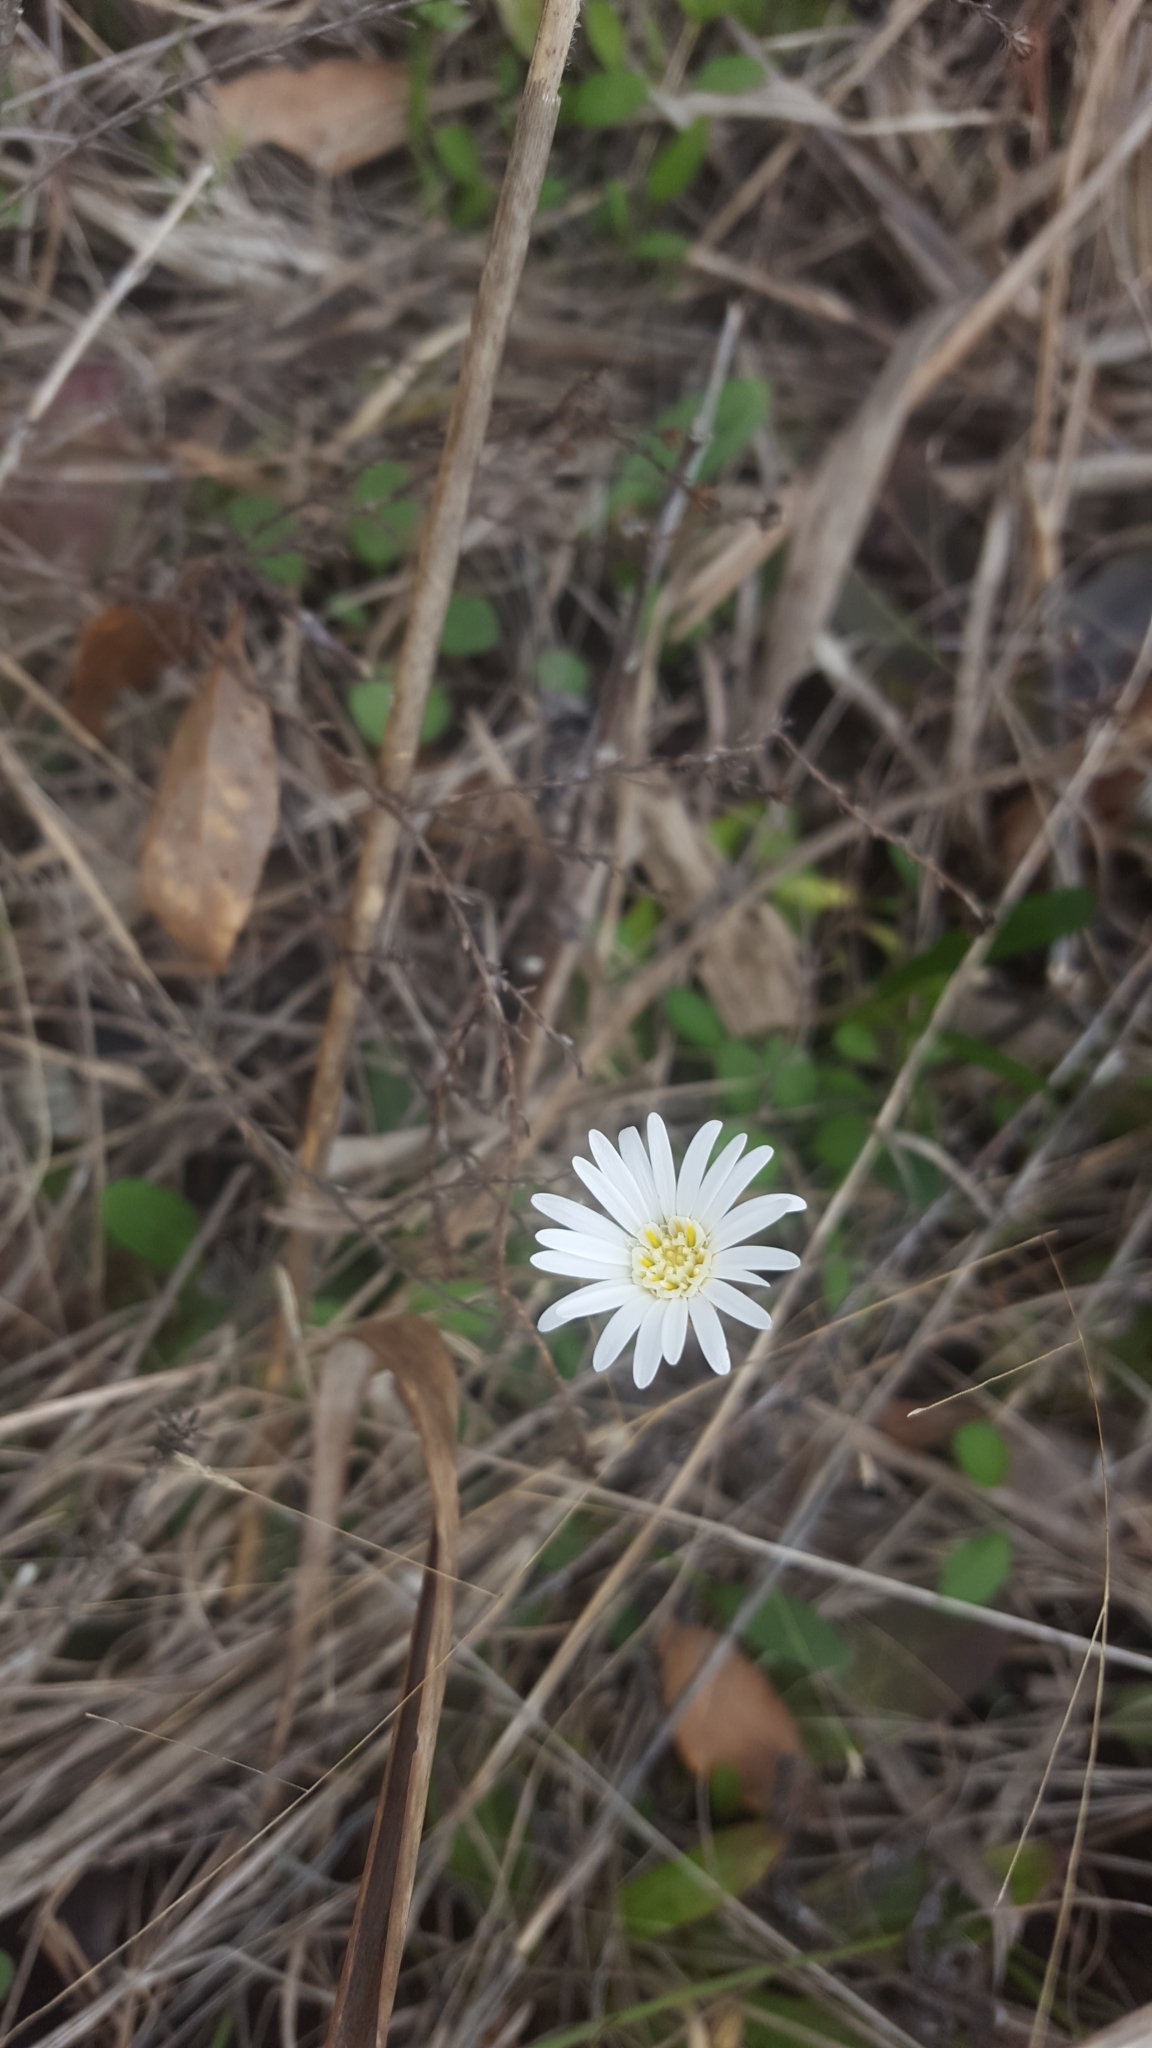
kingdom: Plantae
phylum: Tracheophyta
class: Magnoliopsida
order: Asterales
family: Asteraceae
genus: Chaptalia
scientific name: Chaptalia tomentosa
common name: Woolly sunbonnet
